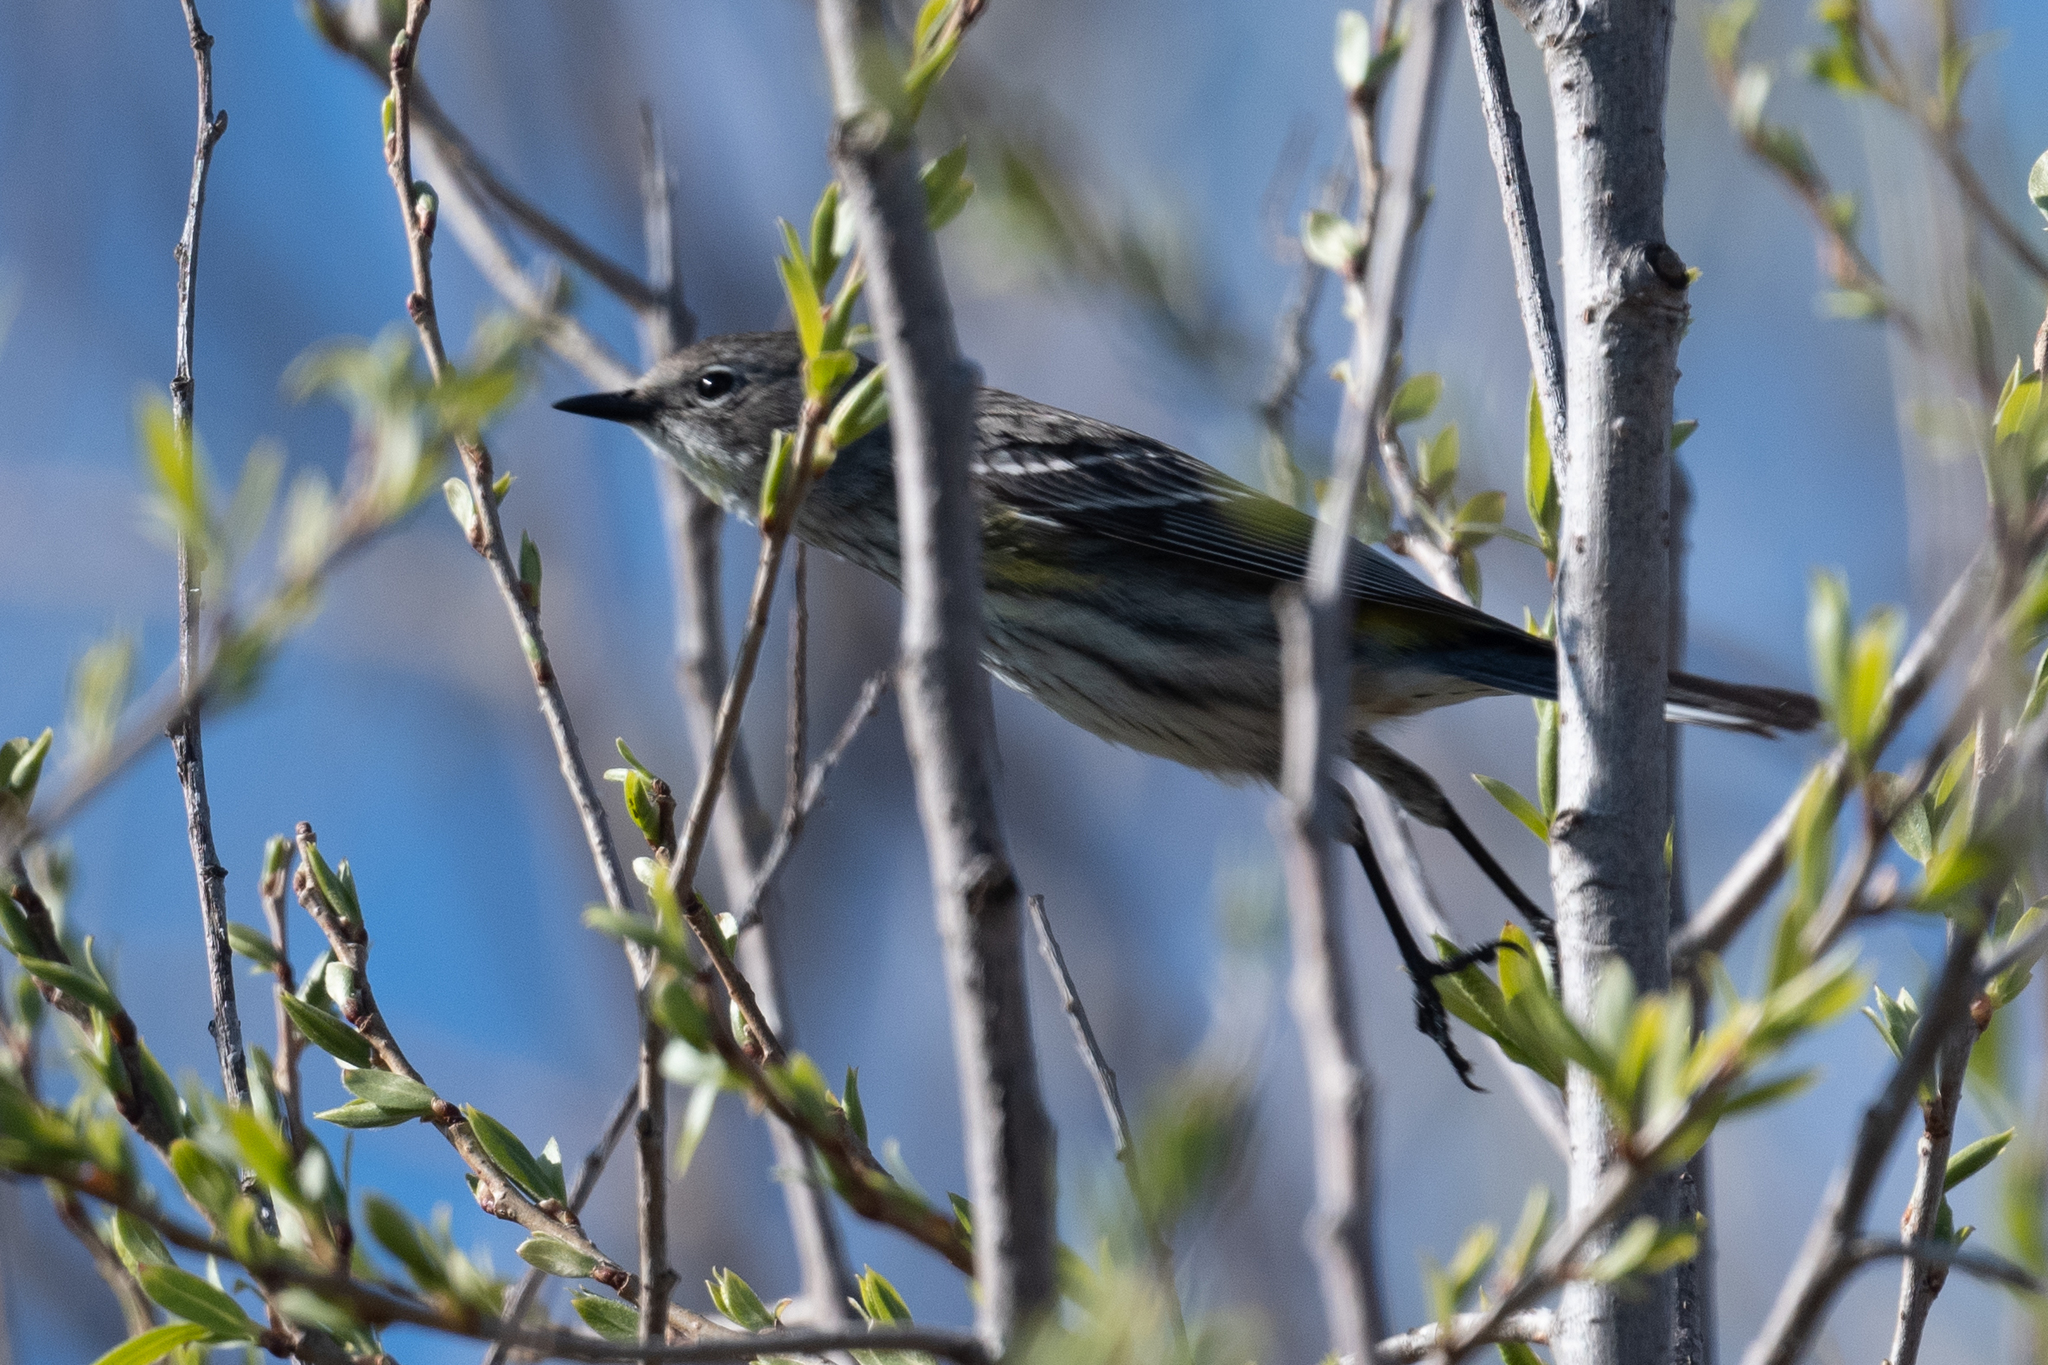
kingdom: Animalia
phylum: Chordata
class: Aves
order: Passeriformes
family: Parulidae
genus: Setophaga
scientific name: Setophaga coronata
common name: Myrtle warbler
